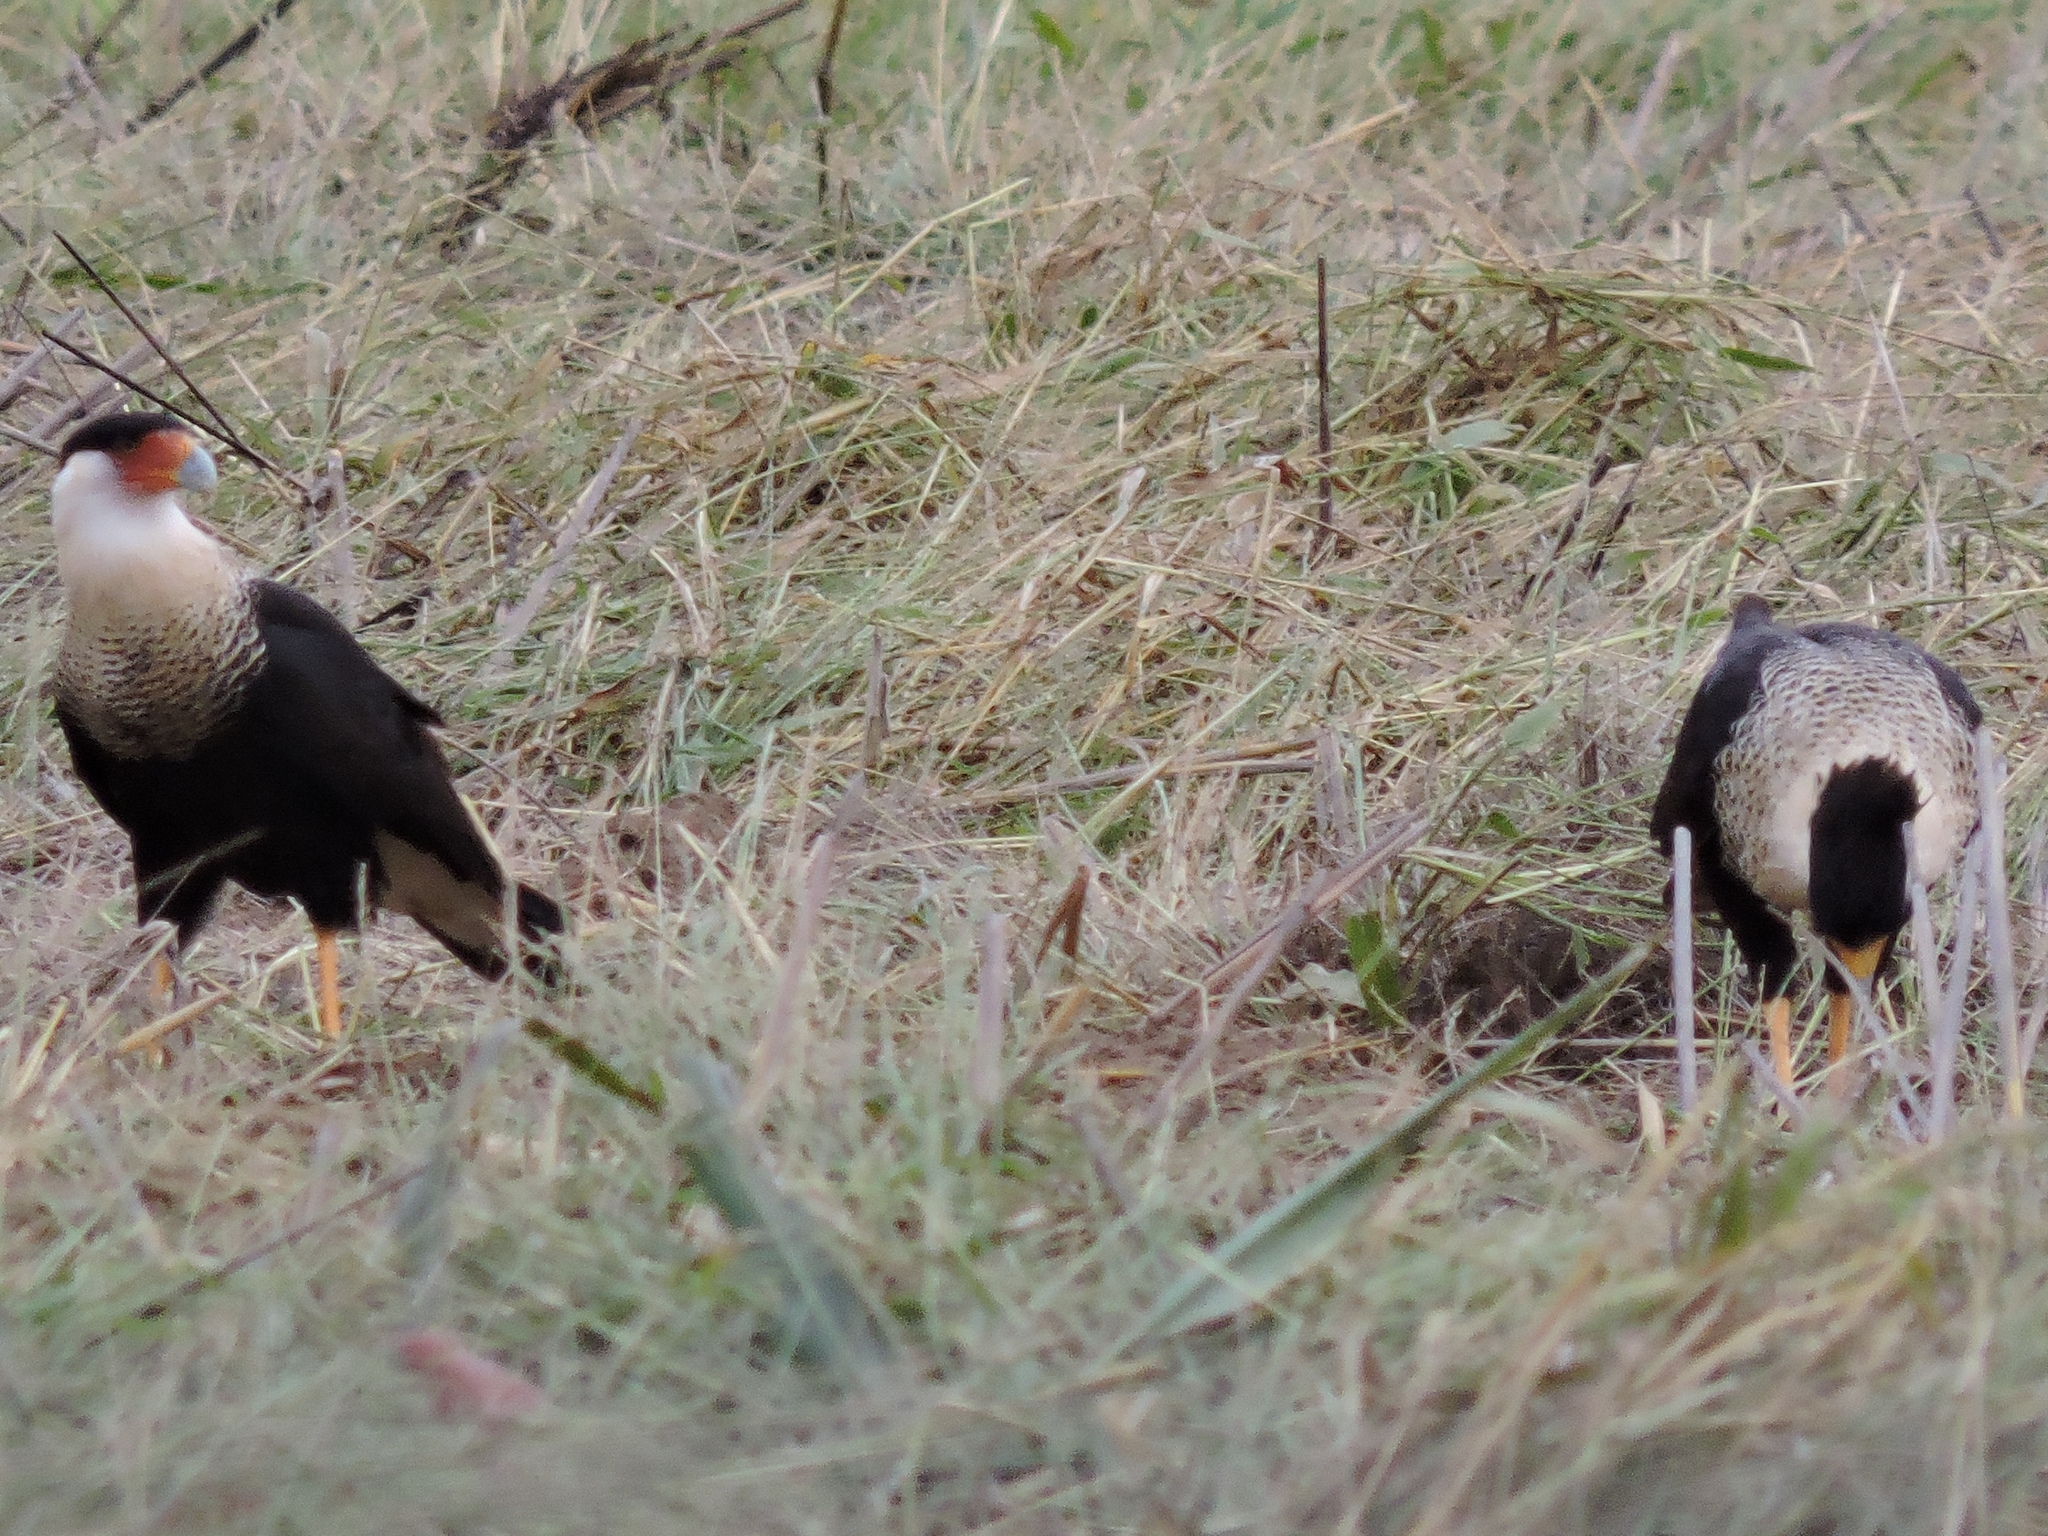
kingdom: Animalia
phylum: Chordata
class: Aves
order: Falconiformes
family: Falconidae
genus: Caracara
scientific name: Caracara plancus
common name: Southern caracara
